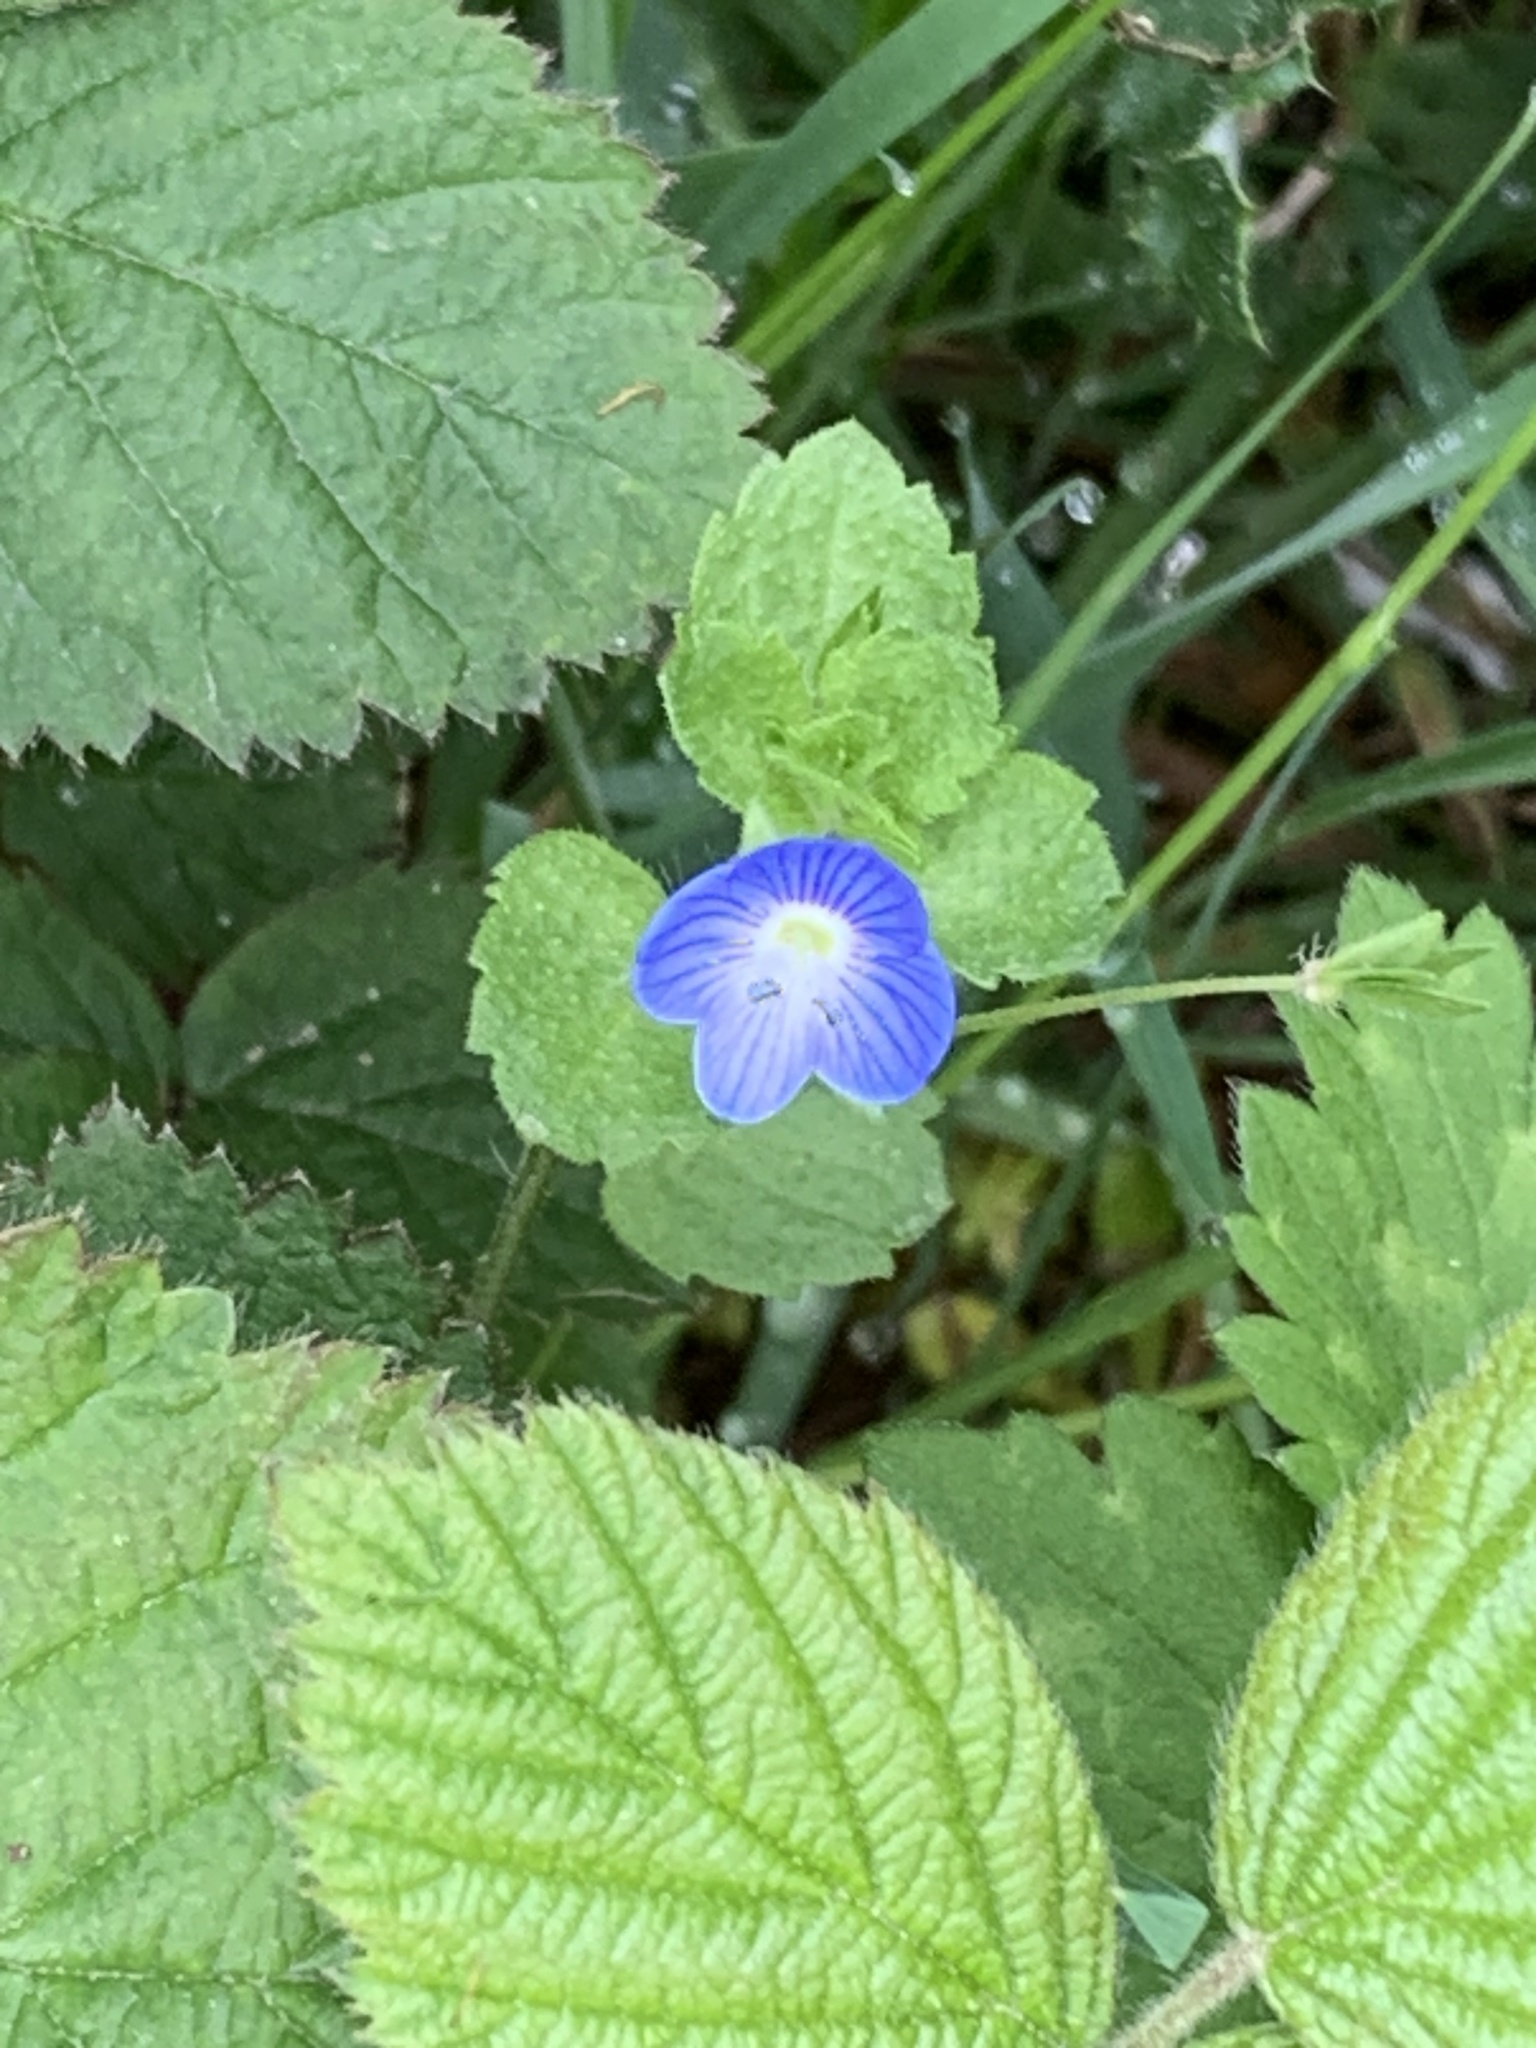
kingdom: Plantae
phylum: Tracheophyta
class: Magnoliopsida
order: Lamiales
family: Plantaginaceae
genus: Veronica
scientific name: Veronica persica
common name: Common field-speedwell
